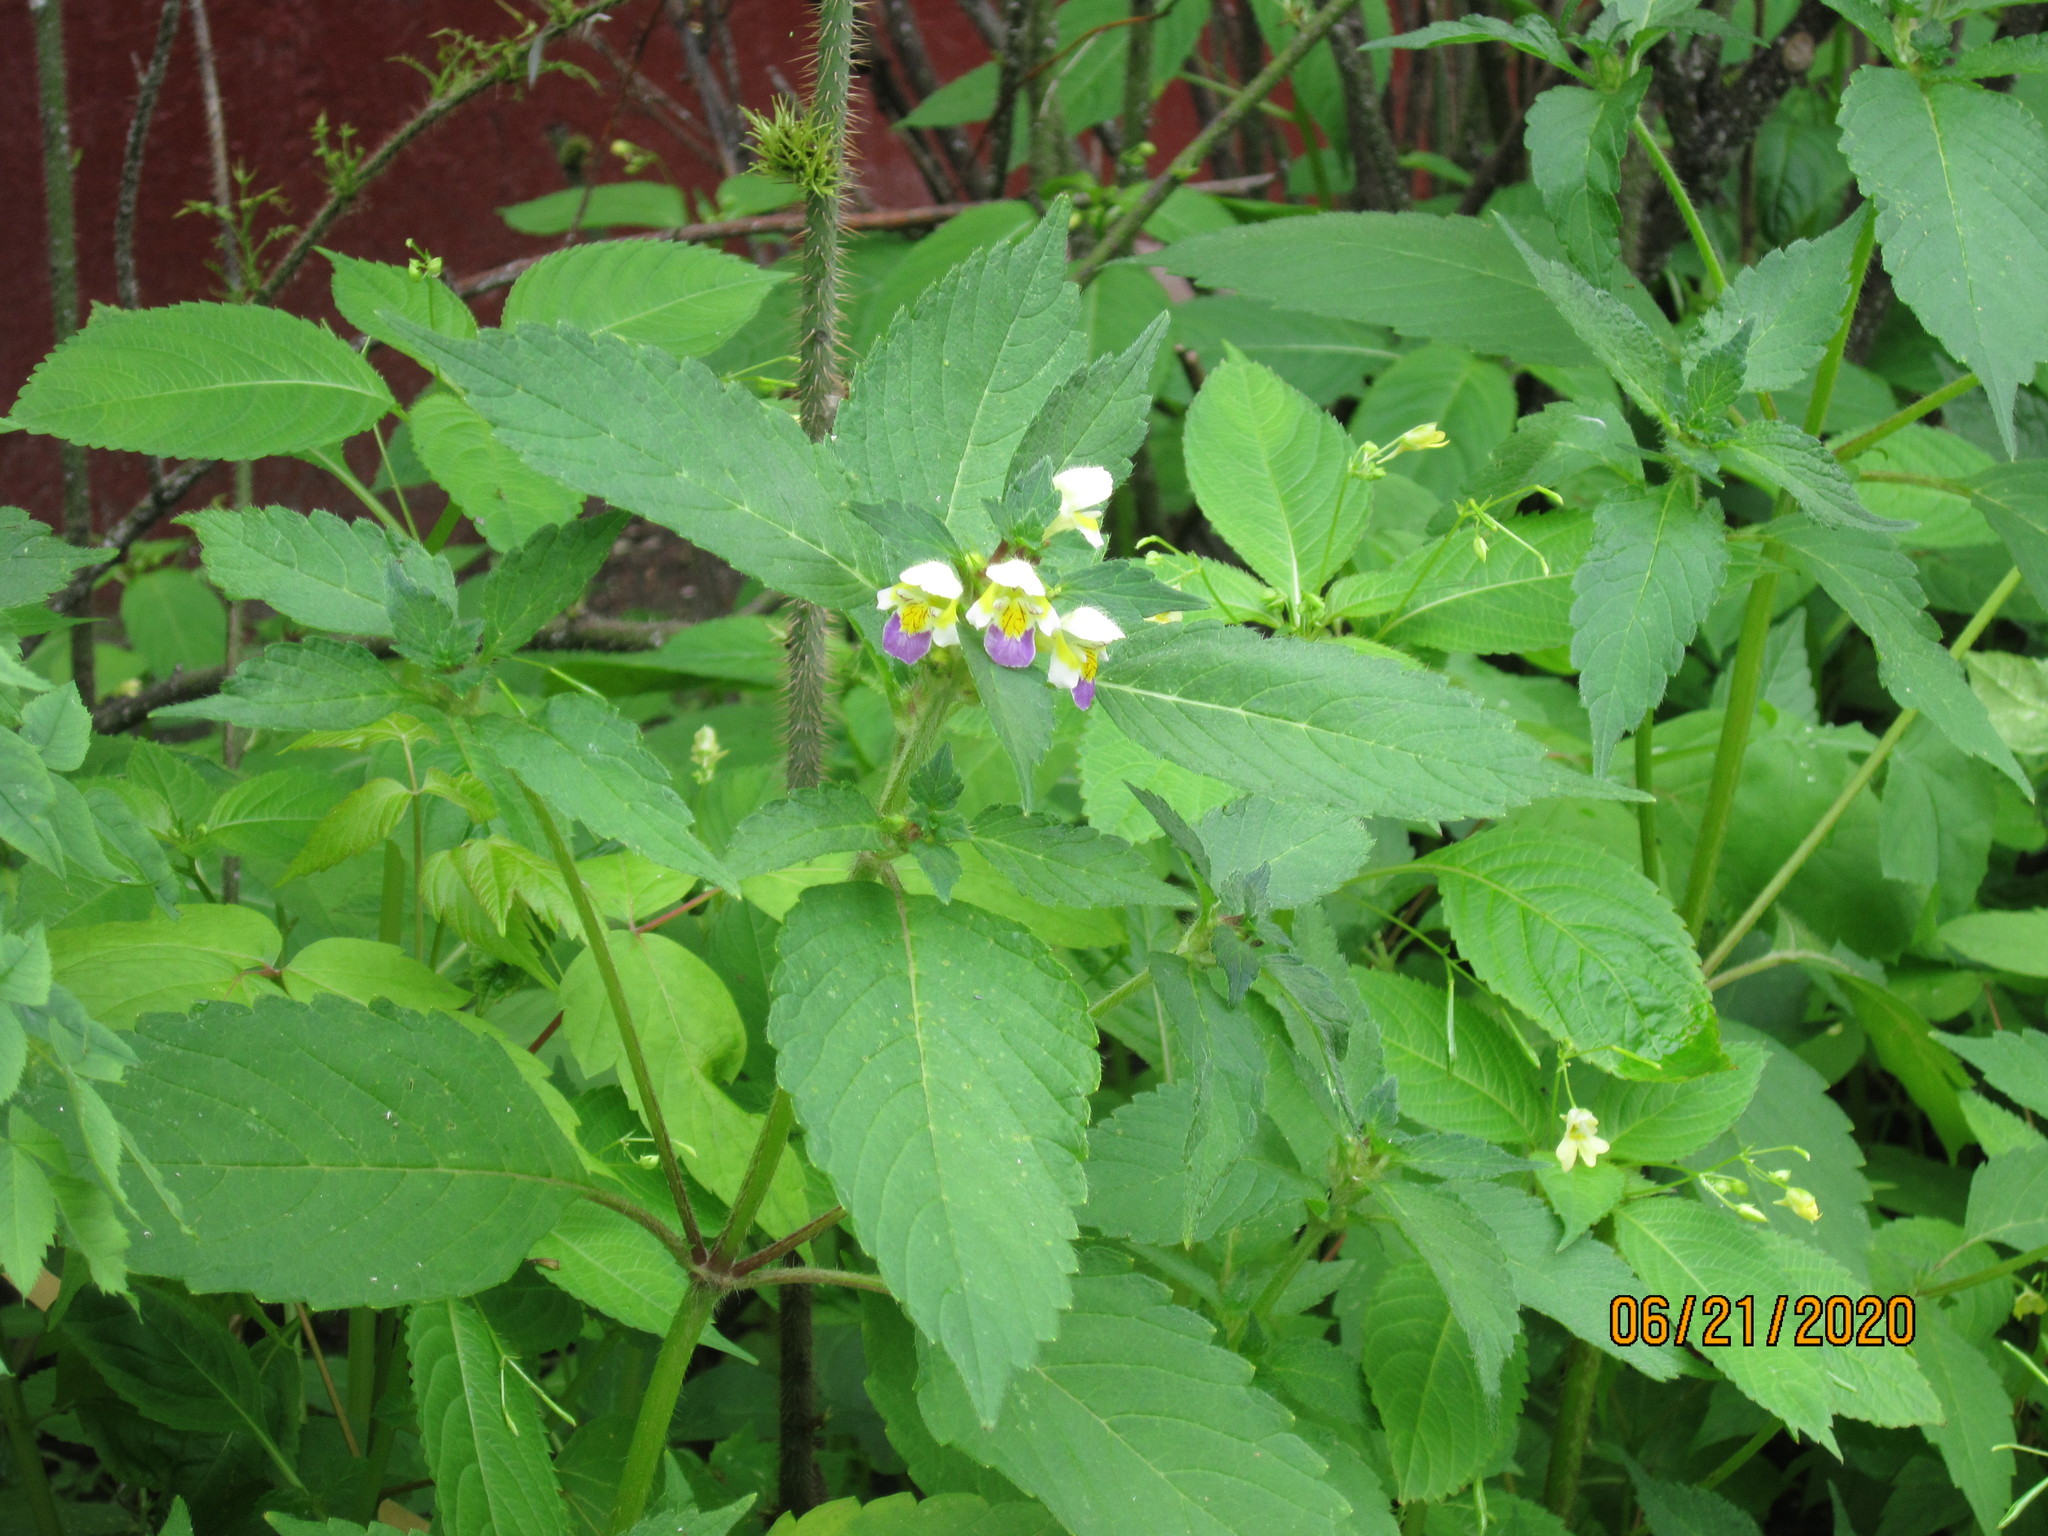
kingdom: Plantae
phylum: Tracheophyta
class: Magnoliopsida
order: Lamiales
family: Lamiaceae
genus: Galeopsis
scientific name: Galeopsis speciosa
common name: Large-flowered hemp-nettle
